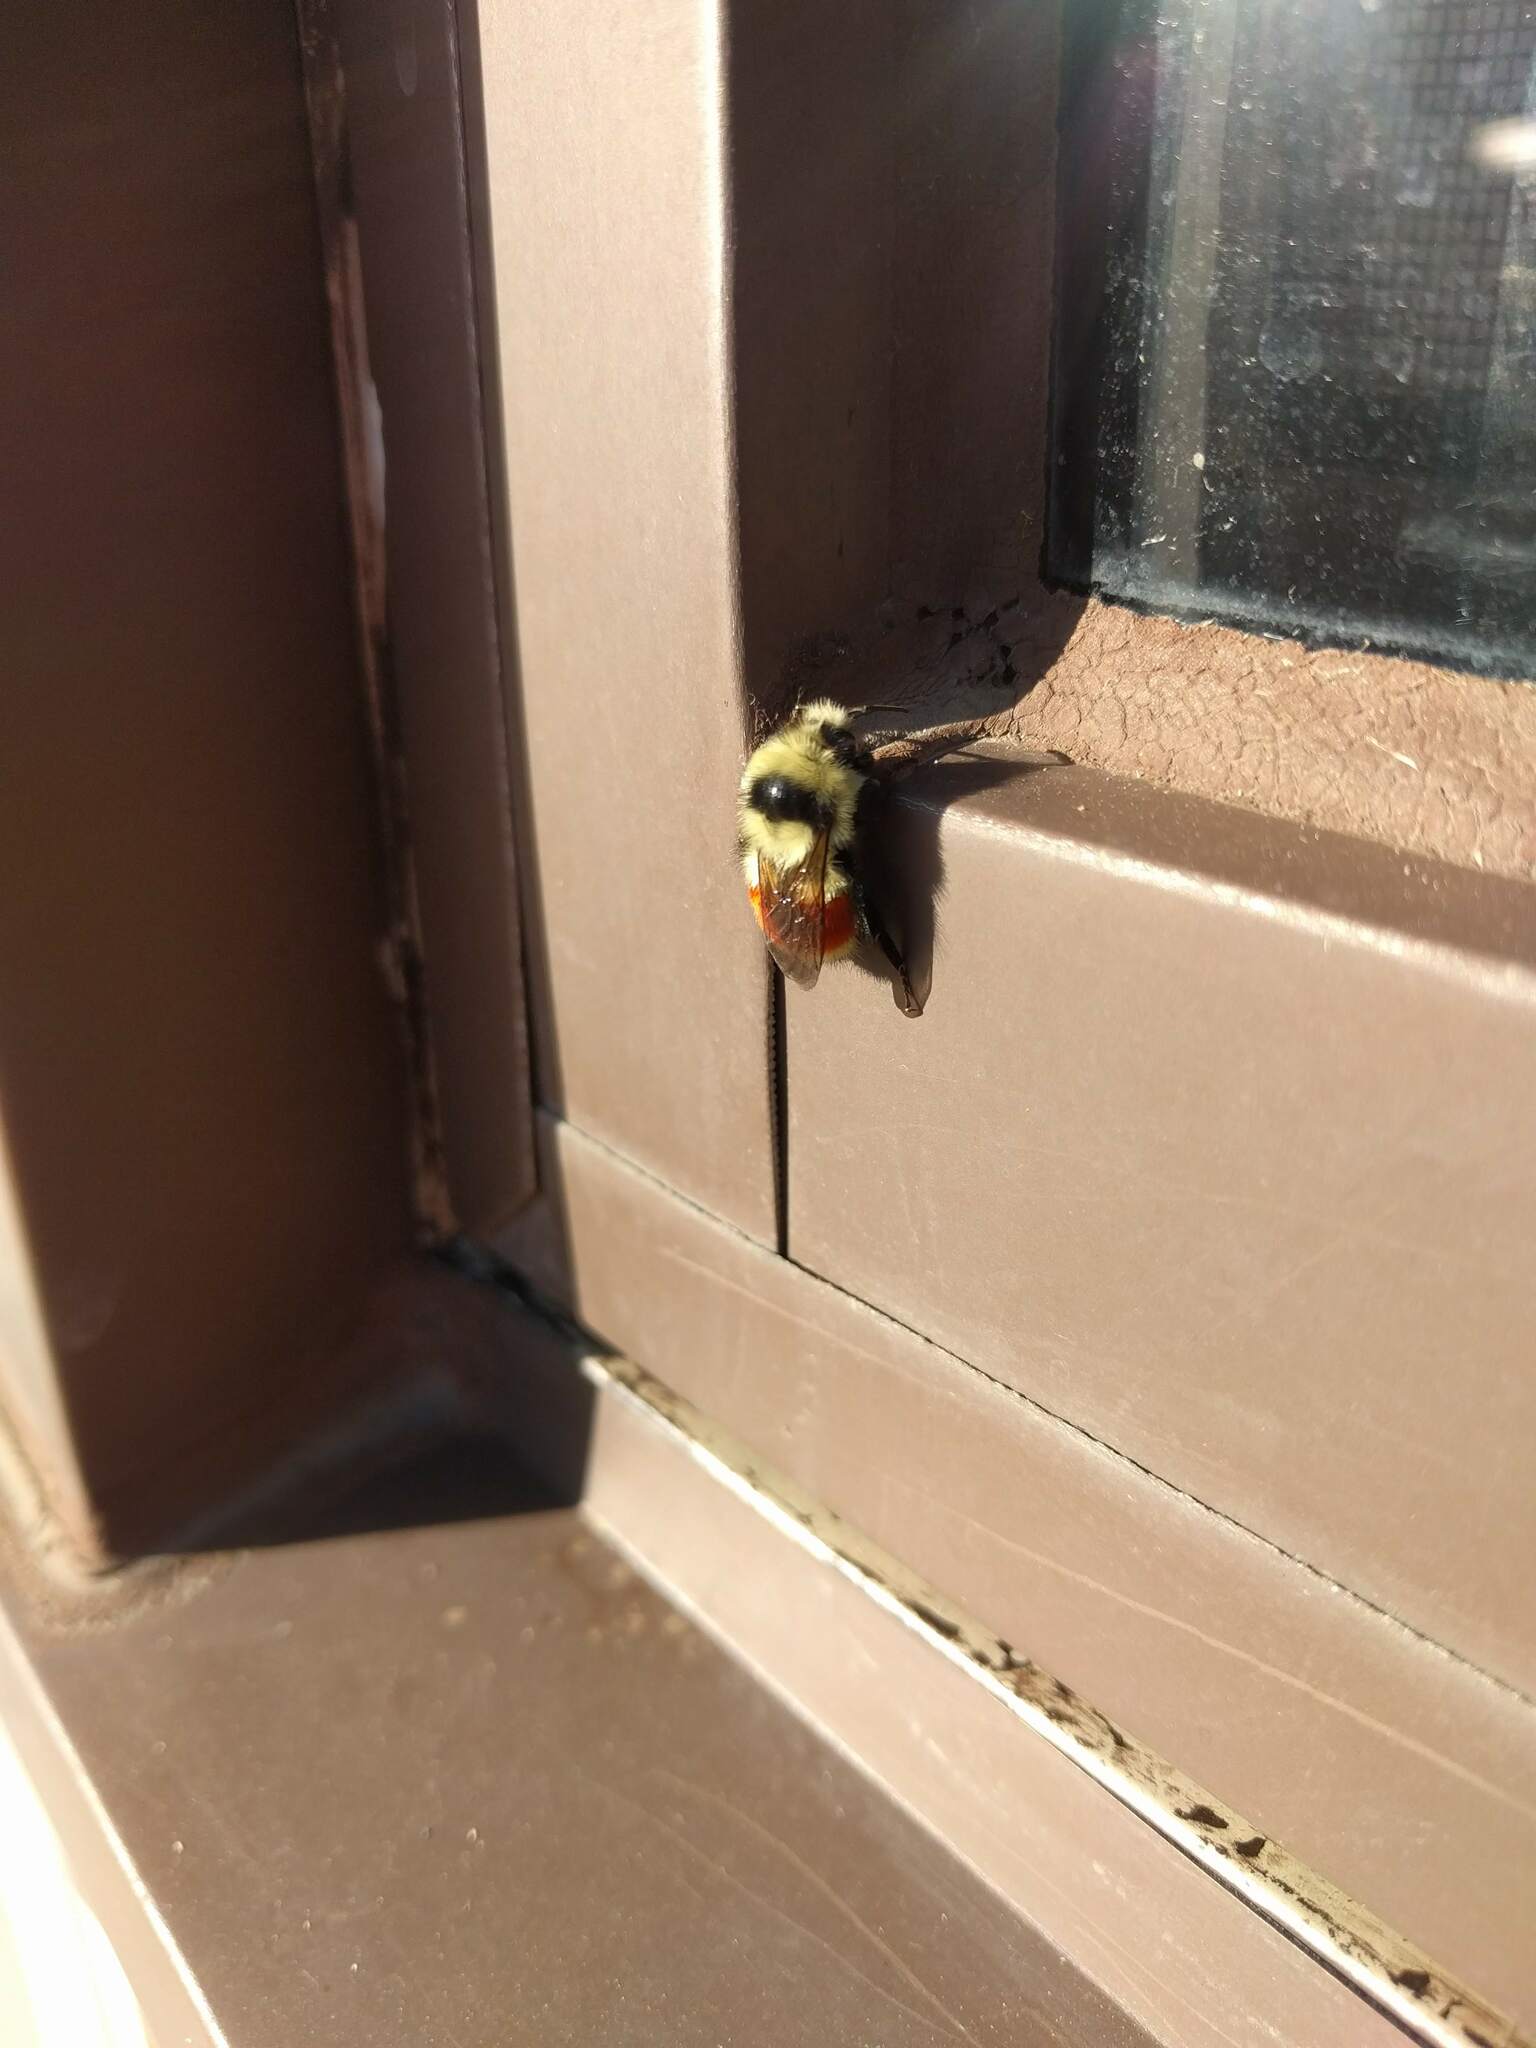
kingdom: Animalia
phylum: Arthropoda
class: Insecta
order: Hymenoptera
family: Apidae
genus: Bombus
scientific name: Bombus huntii
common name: Hunt bumble bee
